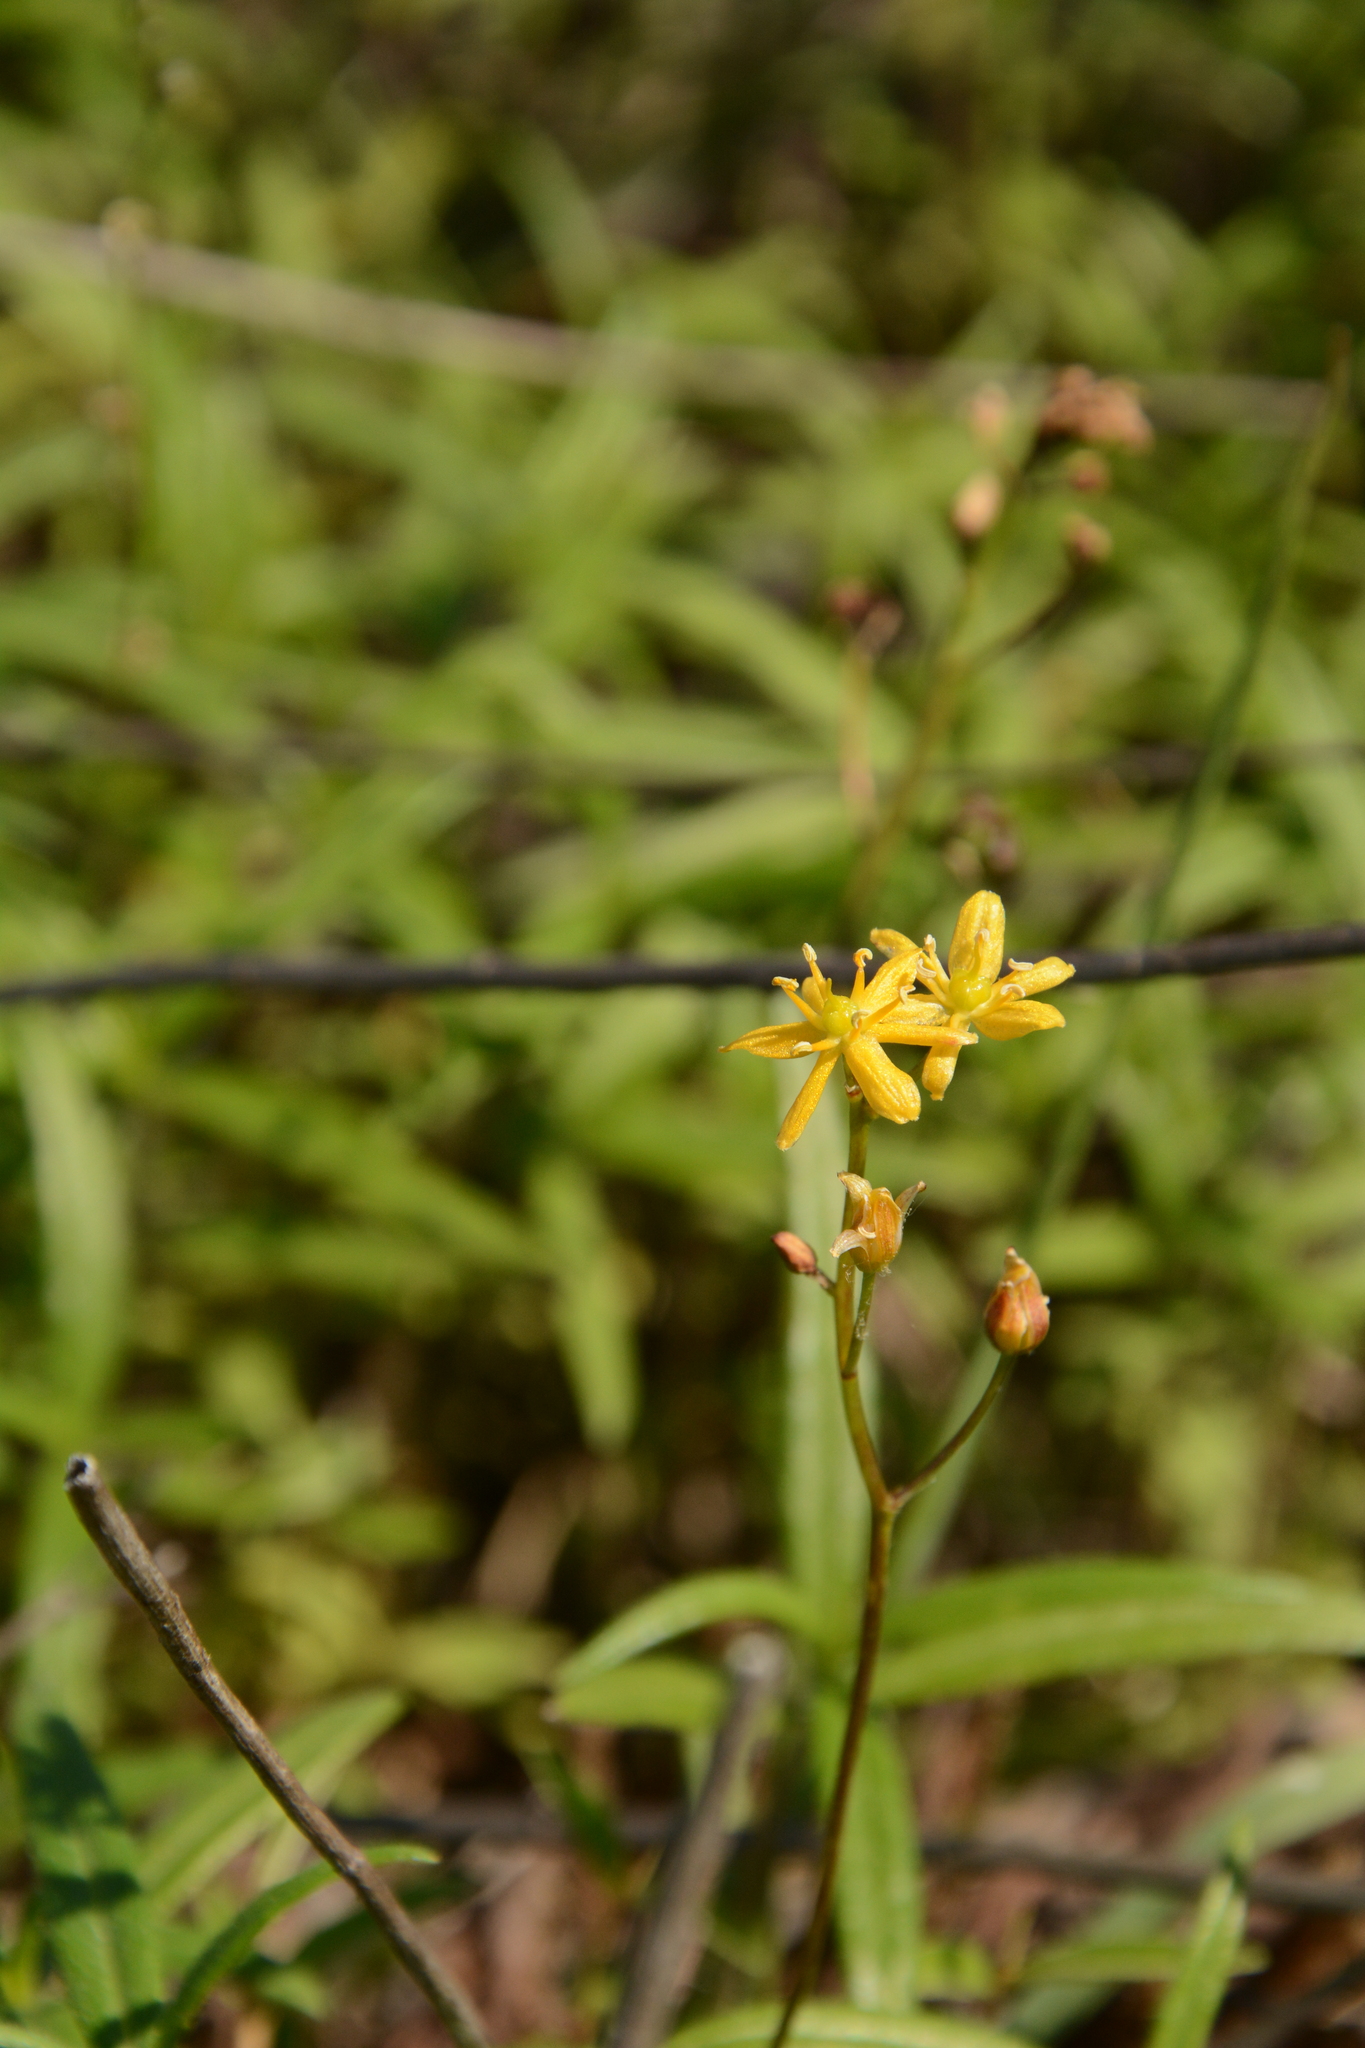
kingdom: Plantae
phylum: Tracheophyta
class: Liliopsida
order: Asparagales
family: Asparagaceae
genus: Schoenolirion
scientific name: Schoenolirion croceum
